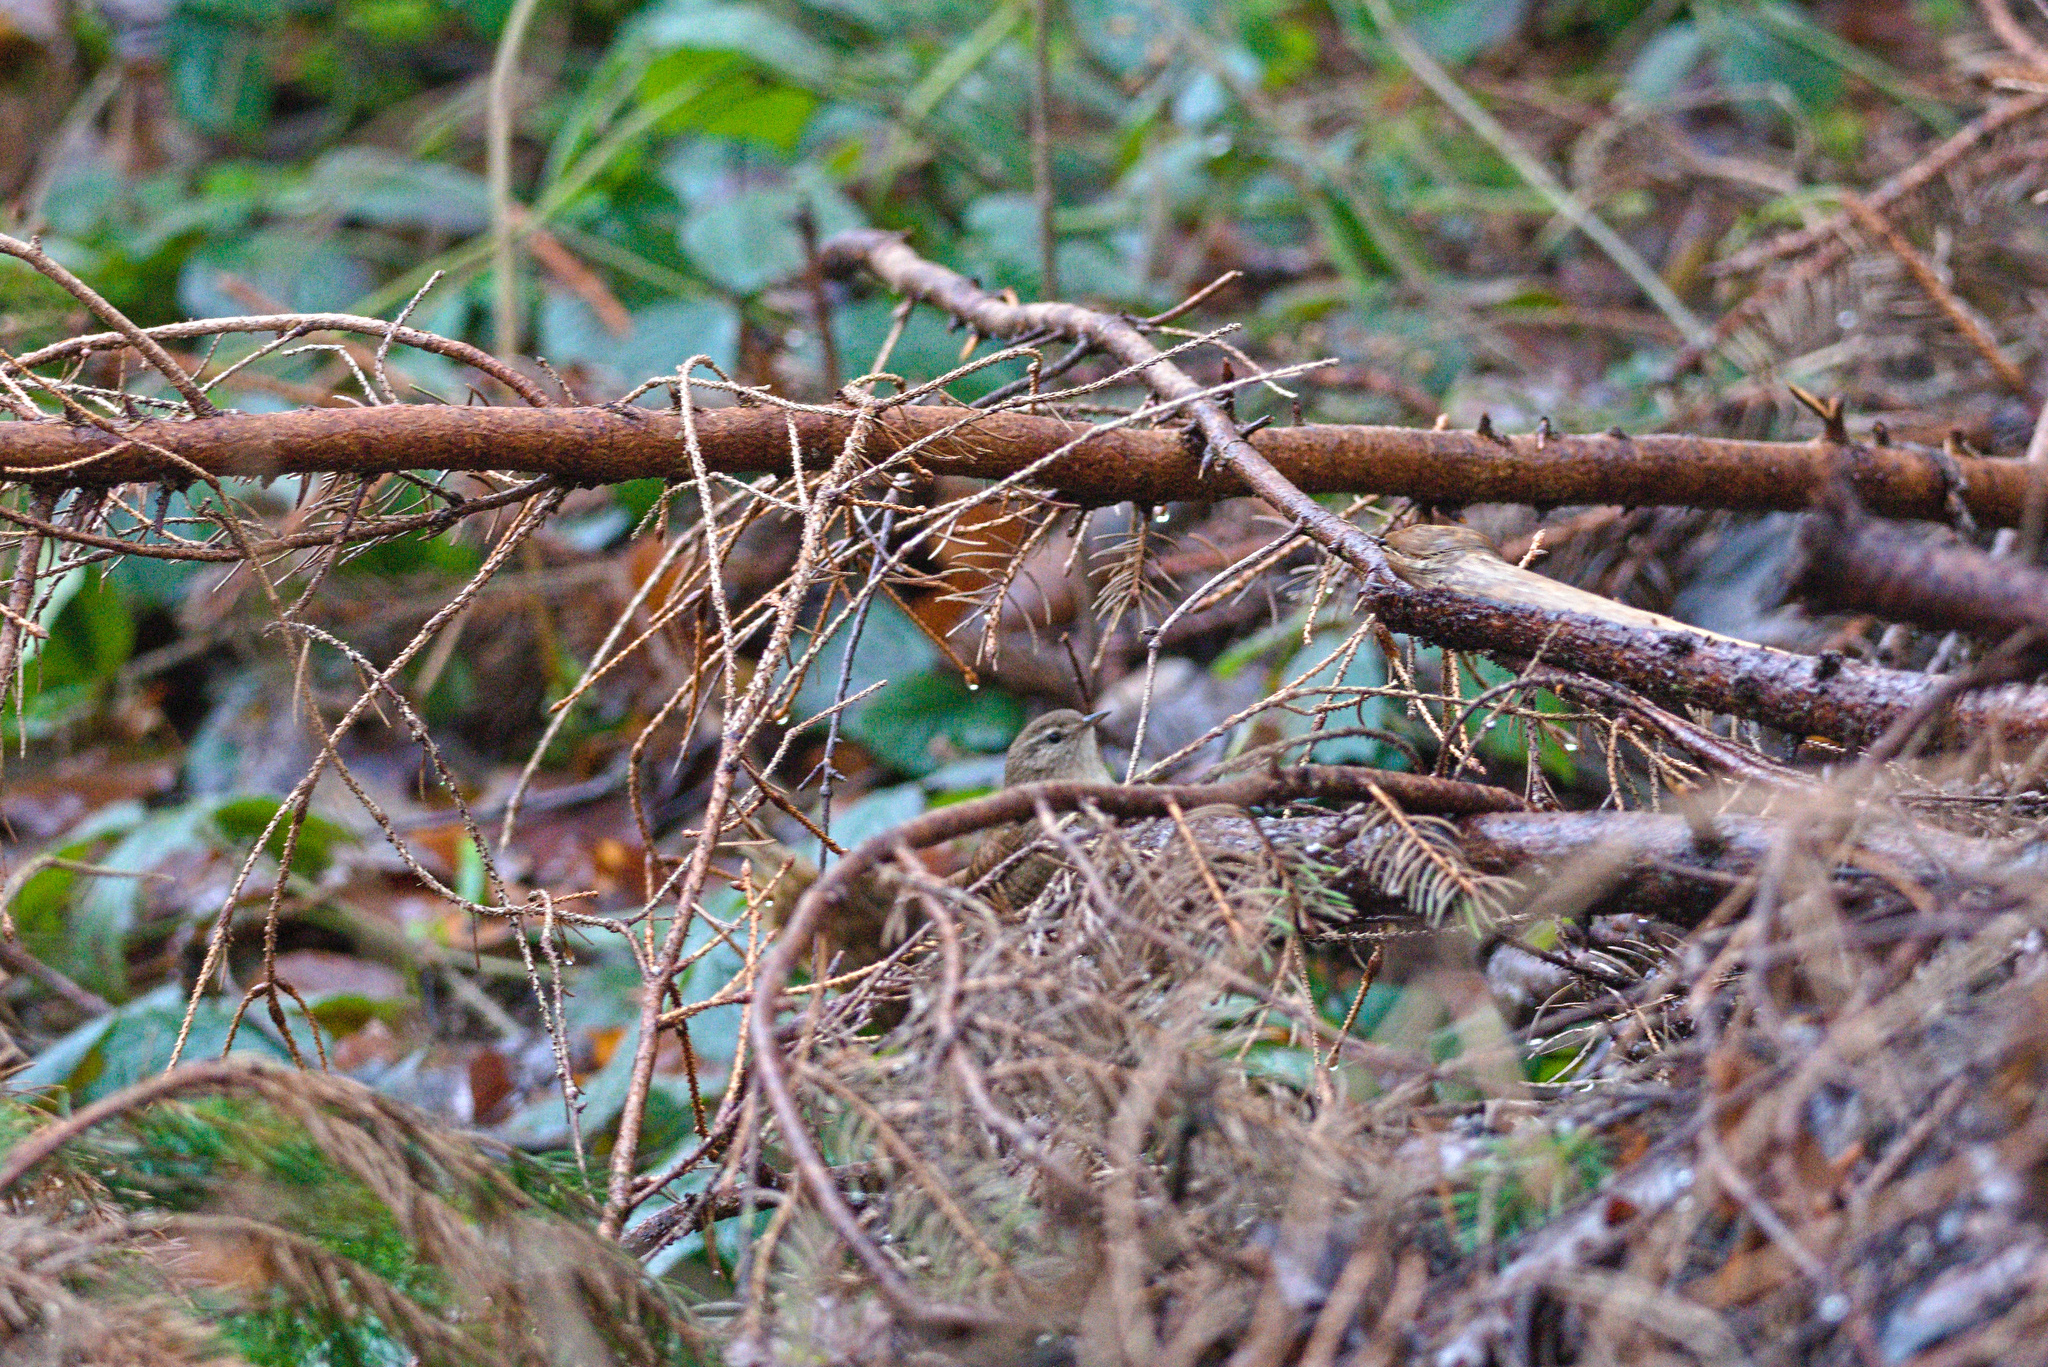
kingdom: Animalia
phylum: Chordata
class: Aves
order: Passeriformes
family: Troglodytidae
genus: Troglodytes
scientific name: Troglodytes troglodytes
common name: Eurasian wren
